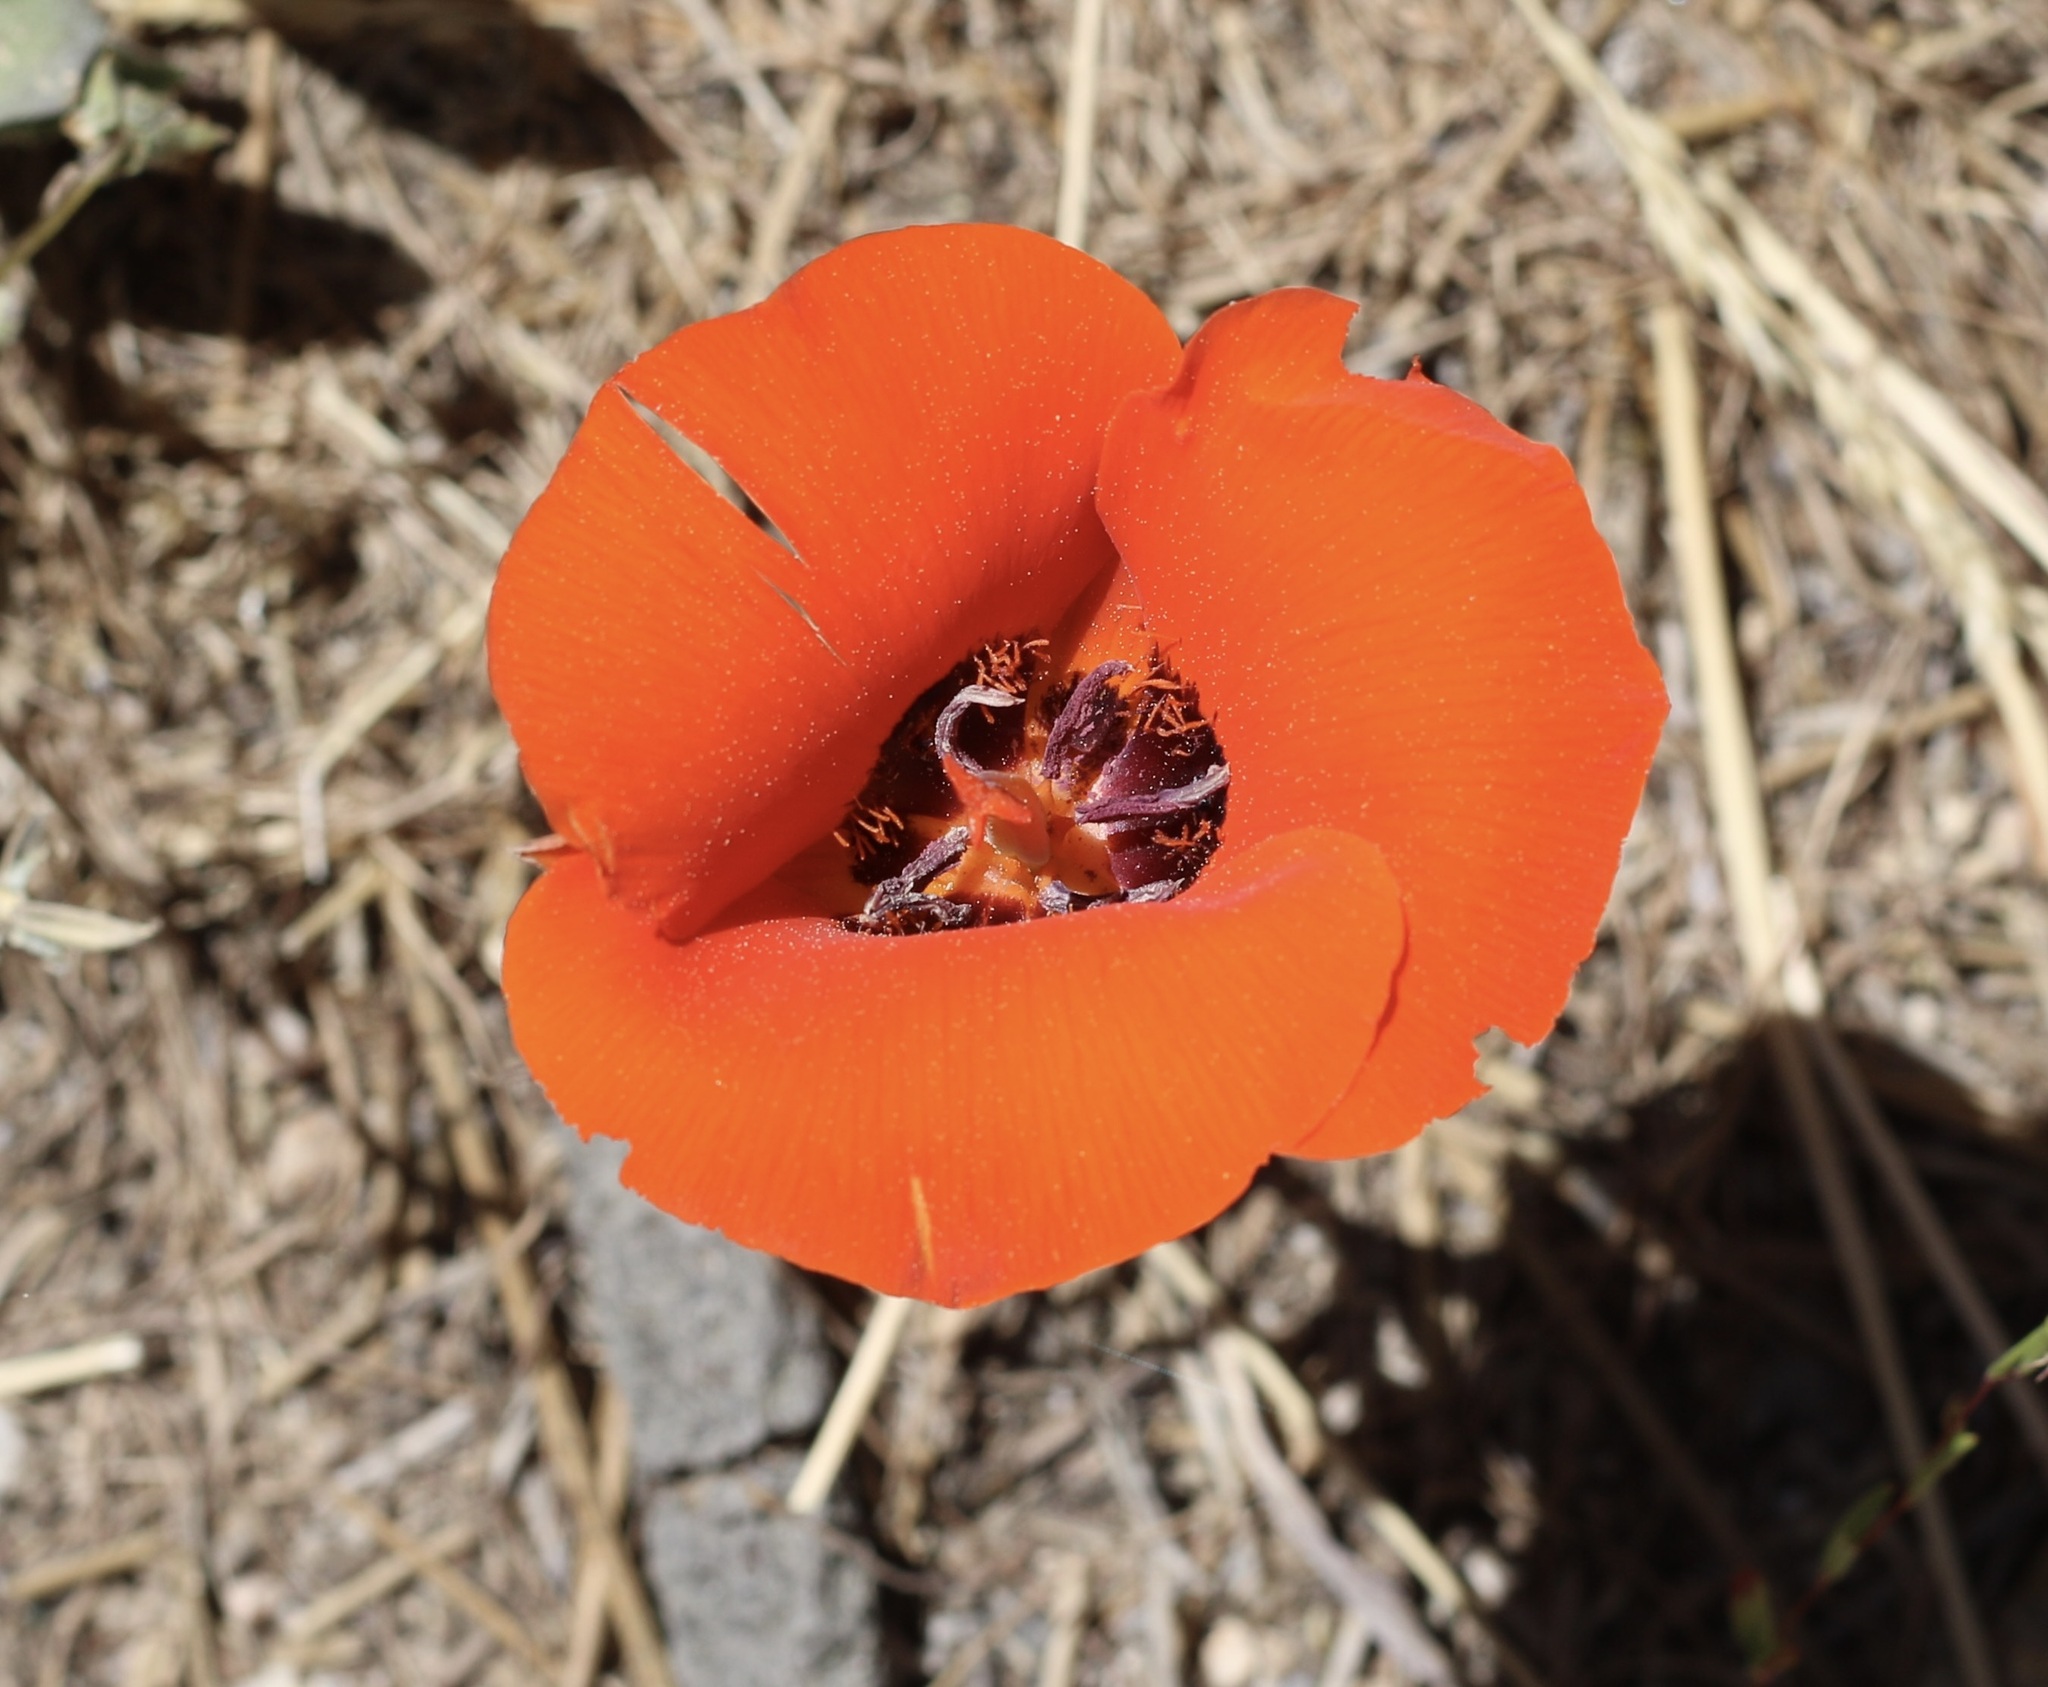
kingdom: Plantae
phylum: Tracheophyta
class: Liliopsida
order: Liliales
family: Liliaceae
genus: Calochortus
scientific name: Calochortus kennedyi
